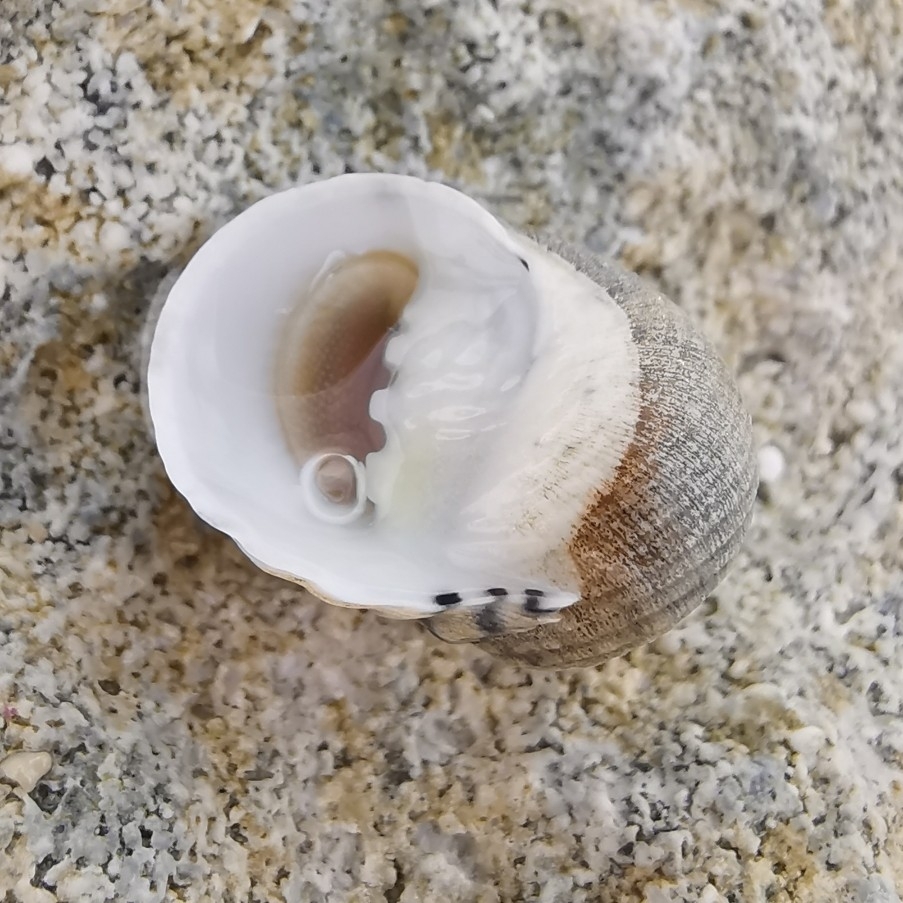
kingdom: Animalia
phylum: Mollusca
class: Gastropoda
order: Cycloneritida
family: Neritidae
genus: Nerita
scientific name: Nerita versicolor
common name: Four-tooth nerite
